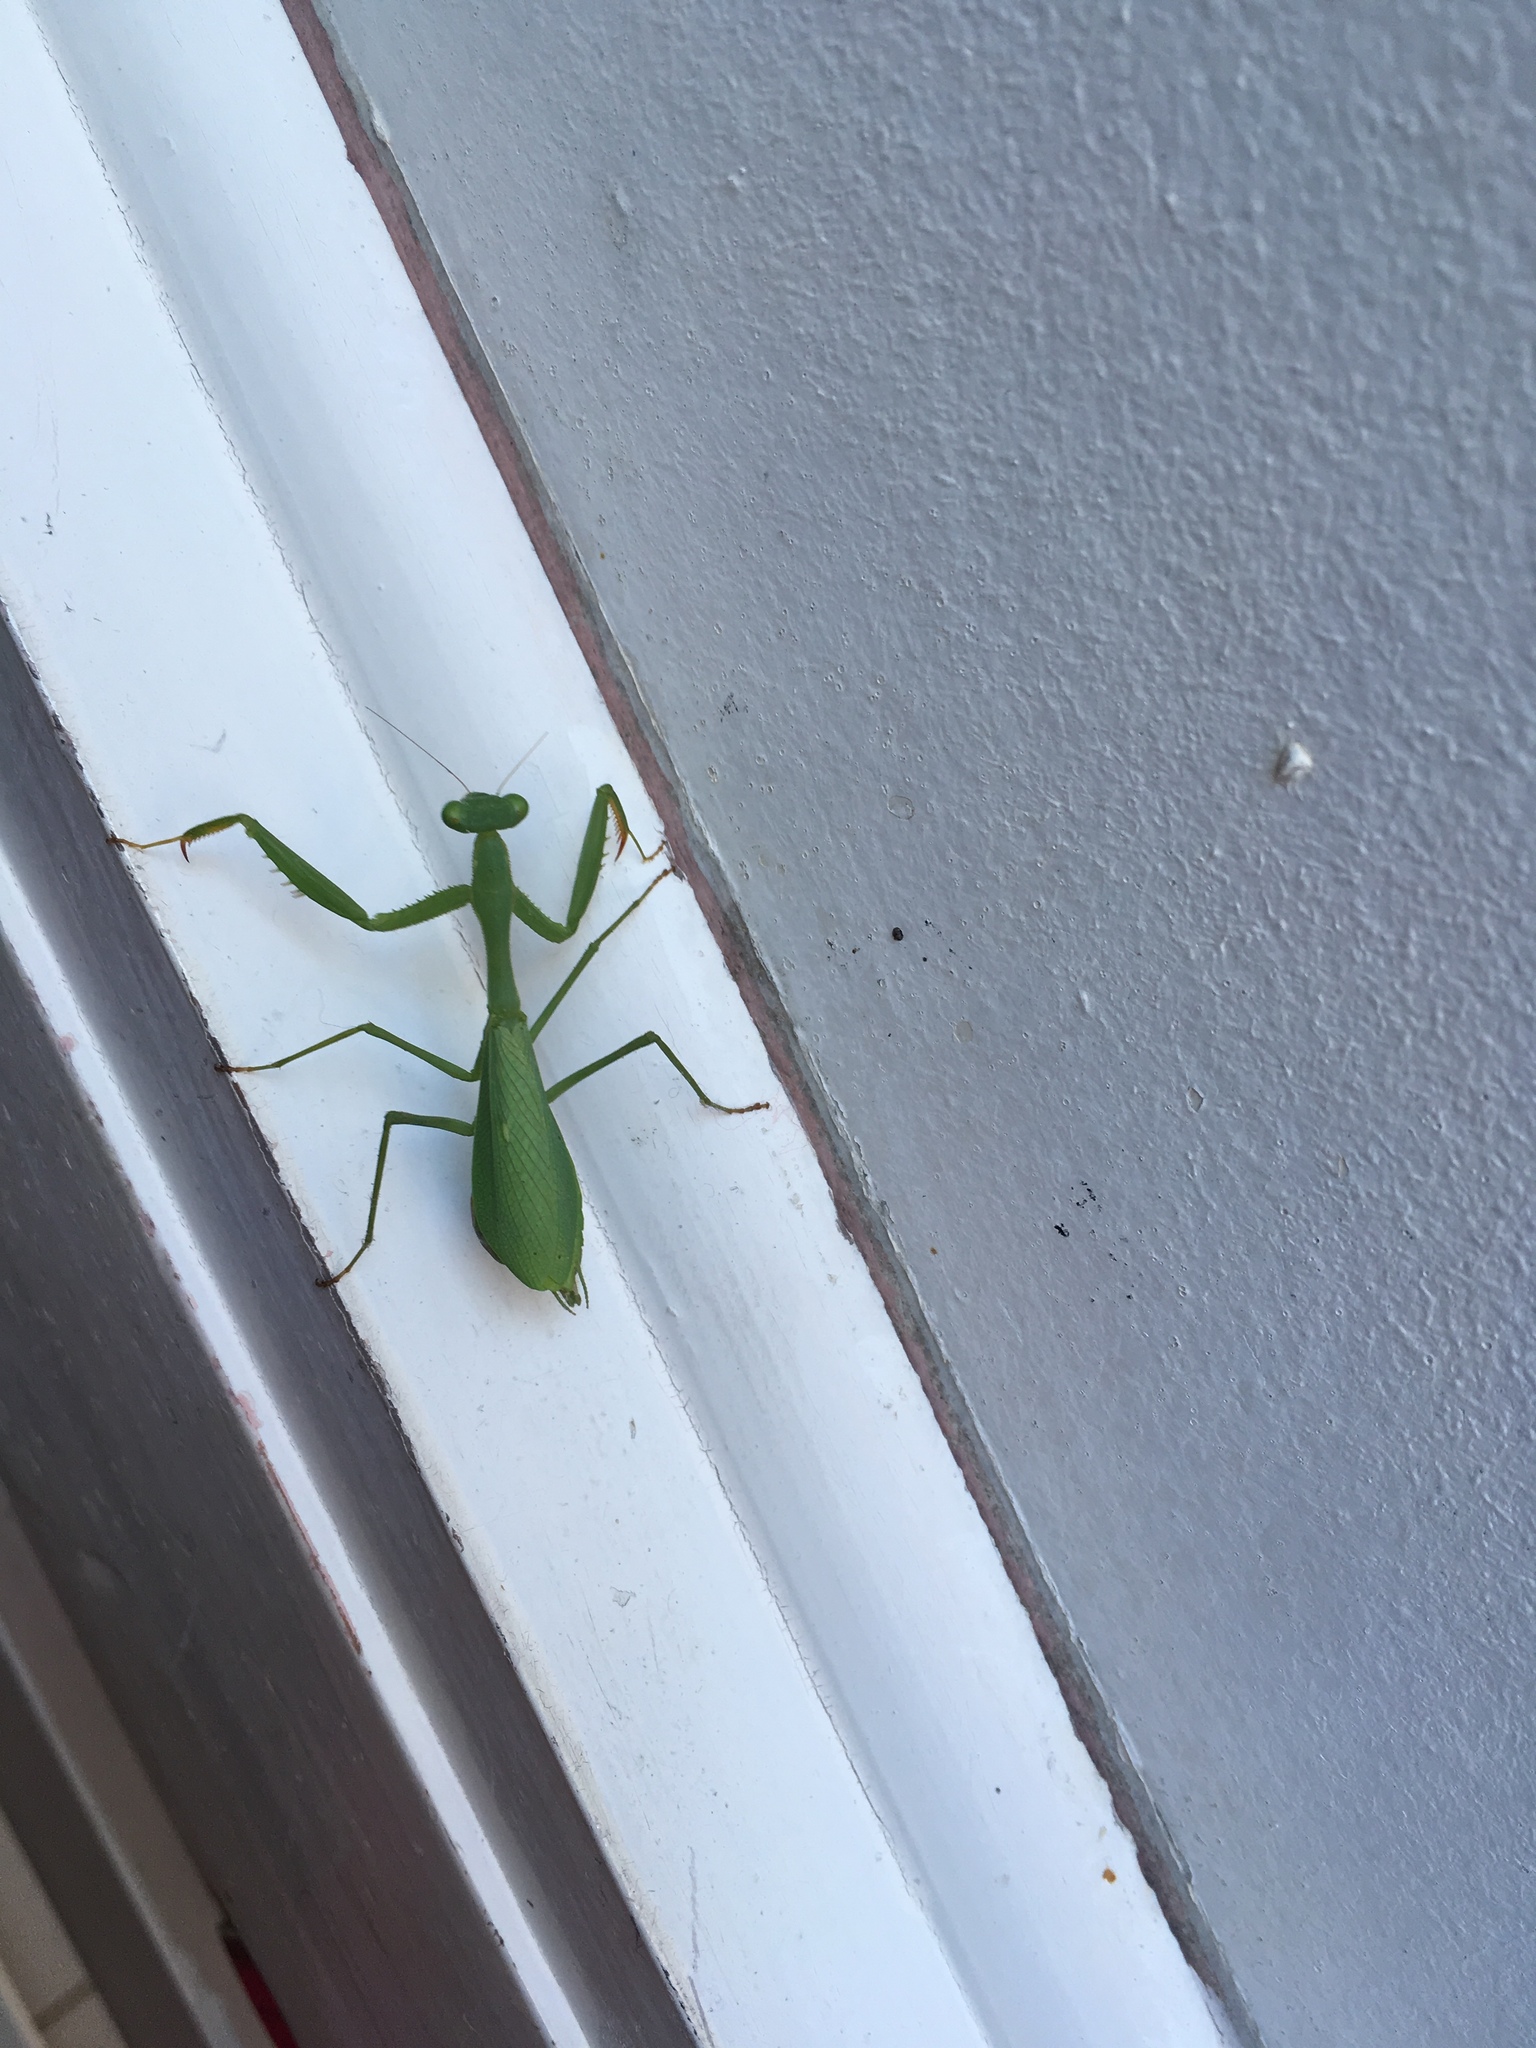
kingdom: Animalia
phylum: Arthropoda
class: Insecta
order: Mantodea
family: Miomantidae
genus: Miomantis
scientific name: Miomantis caffra
